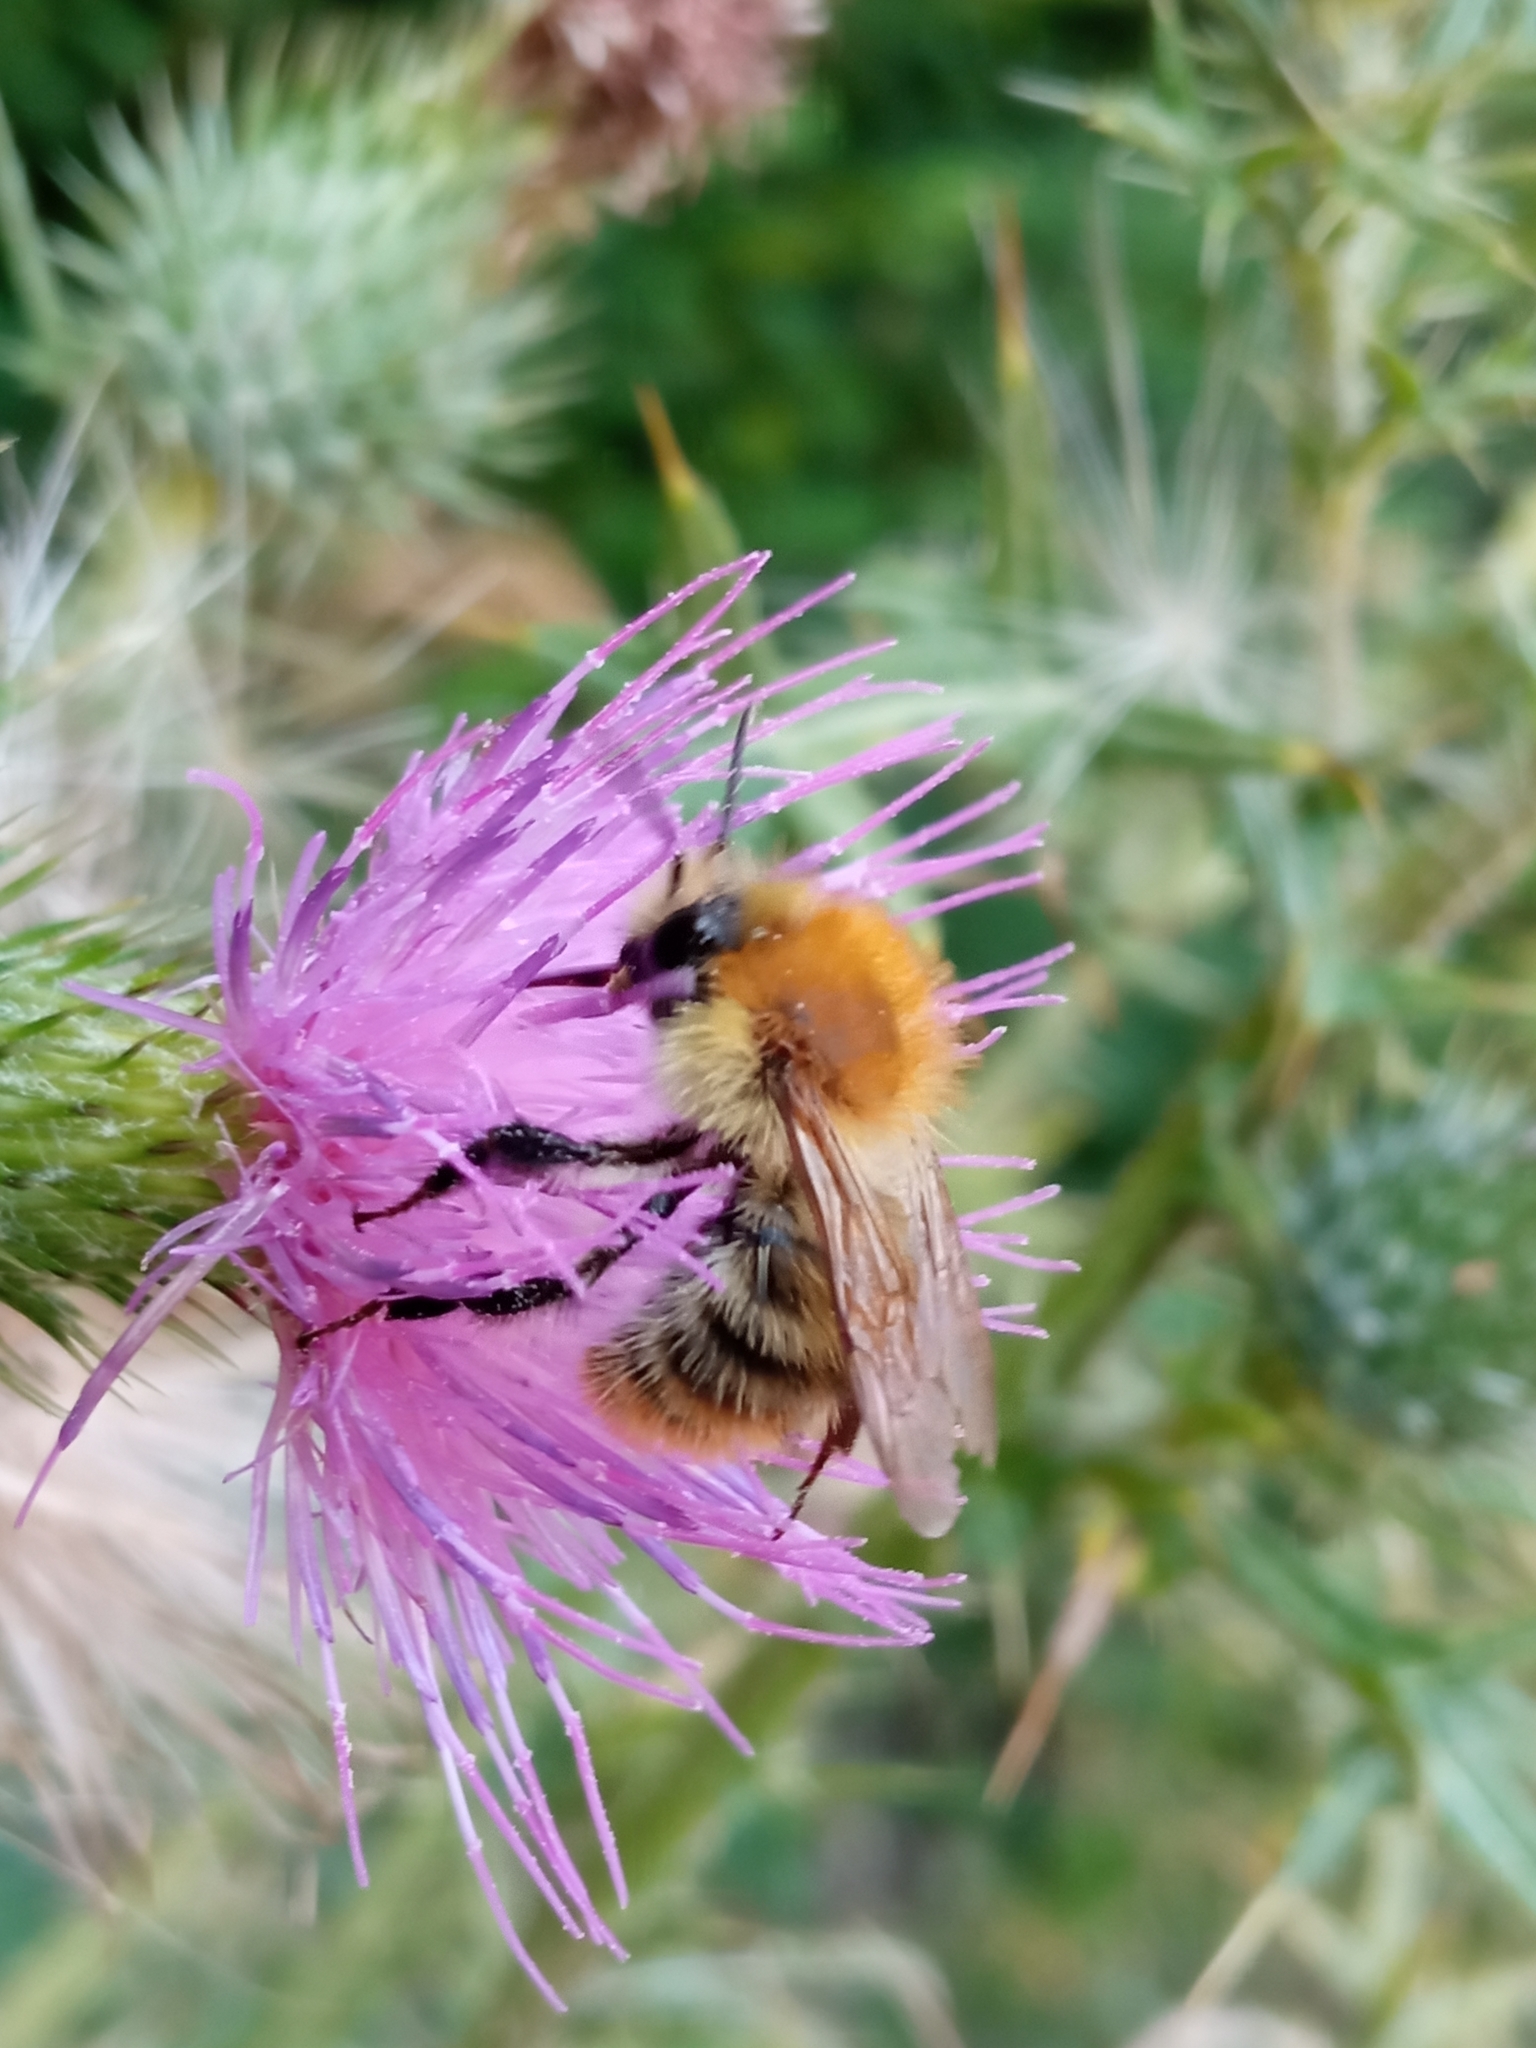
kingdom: Animalia
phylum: Arthropoda
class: Insecta
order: Hymenoptera
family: Apidae
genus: Bombus
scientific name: Bombus pascuorum
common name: Common carder bee
